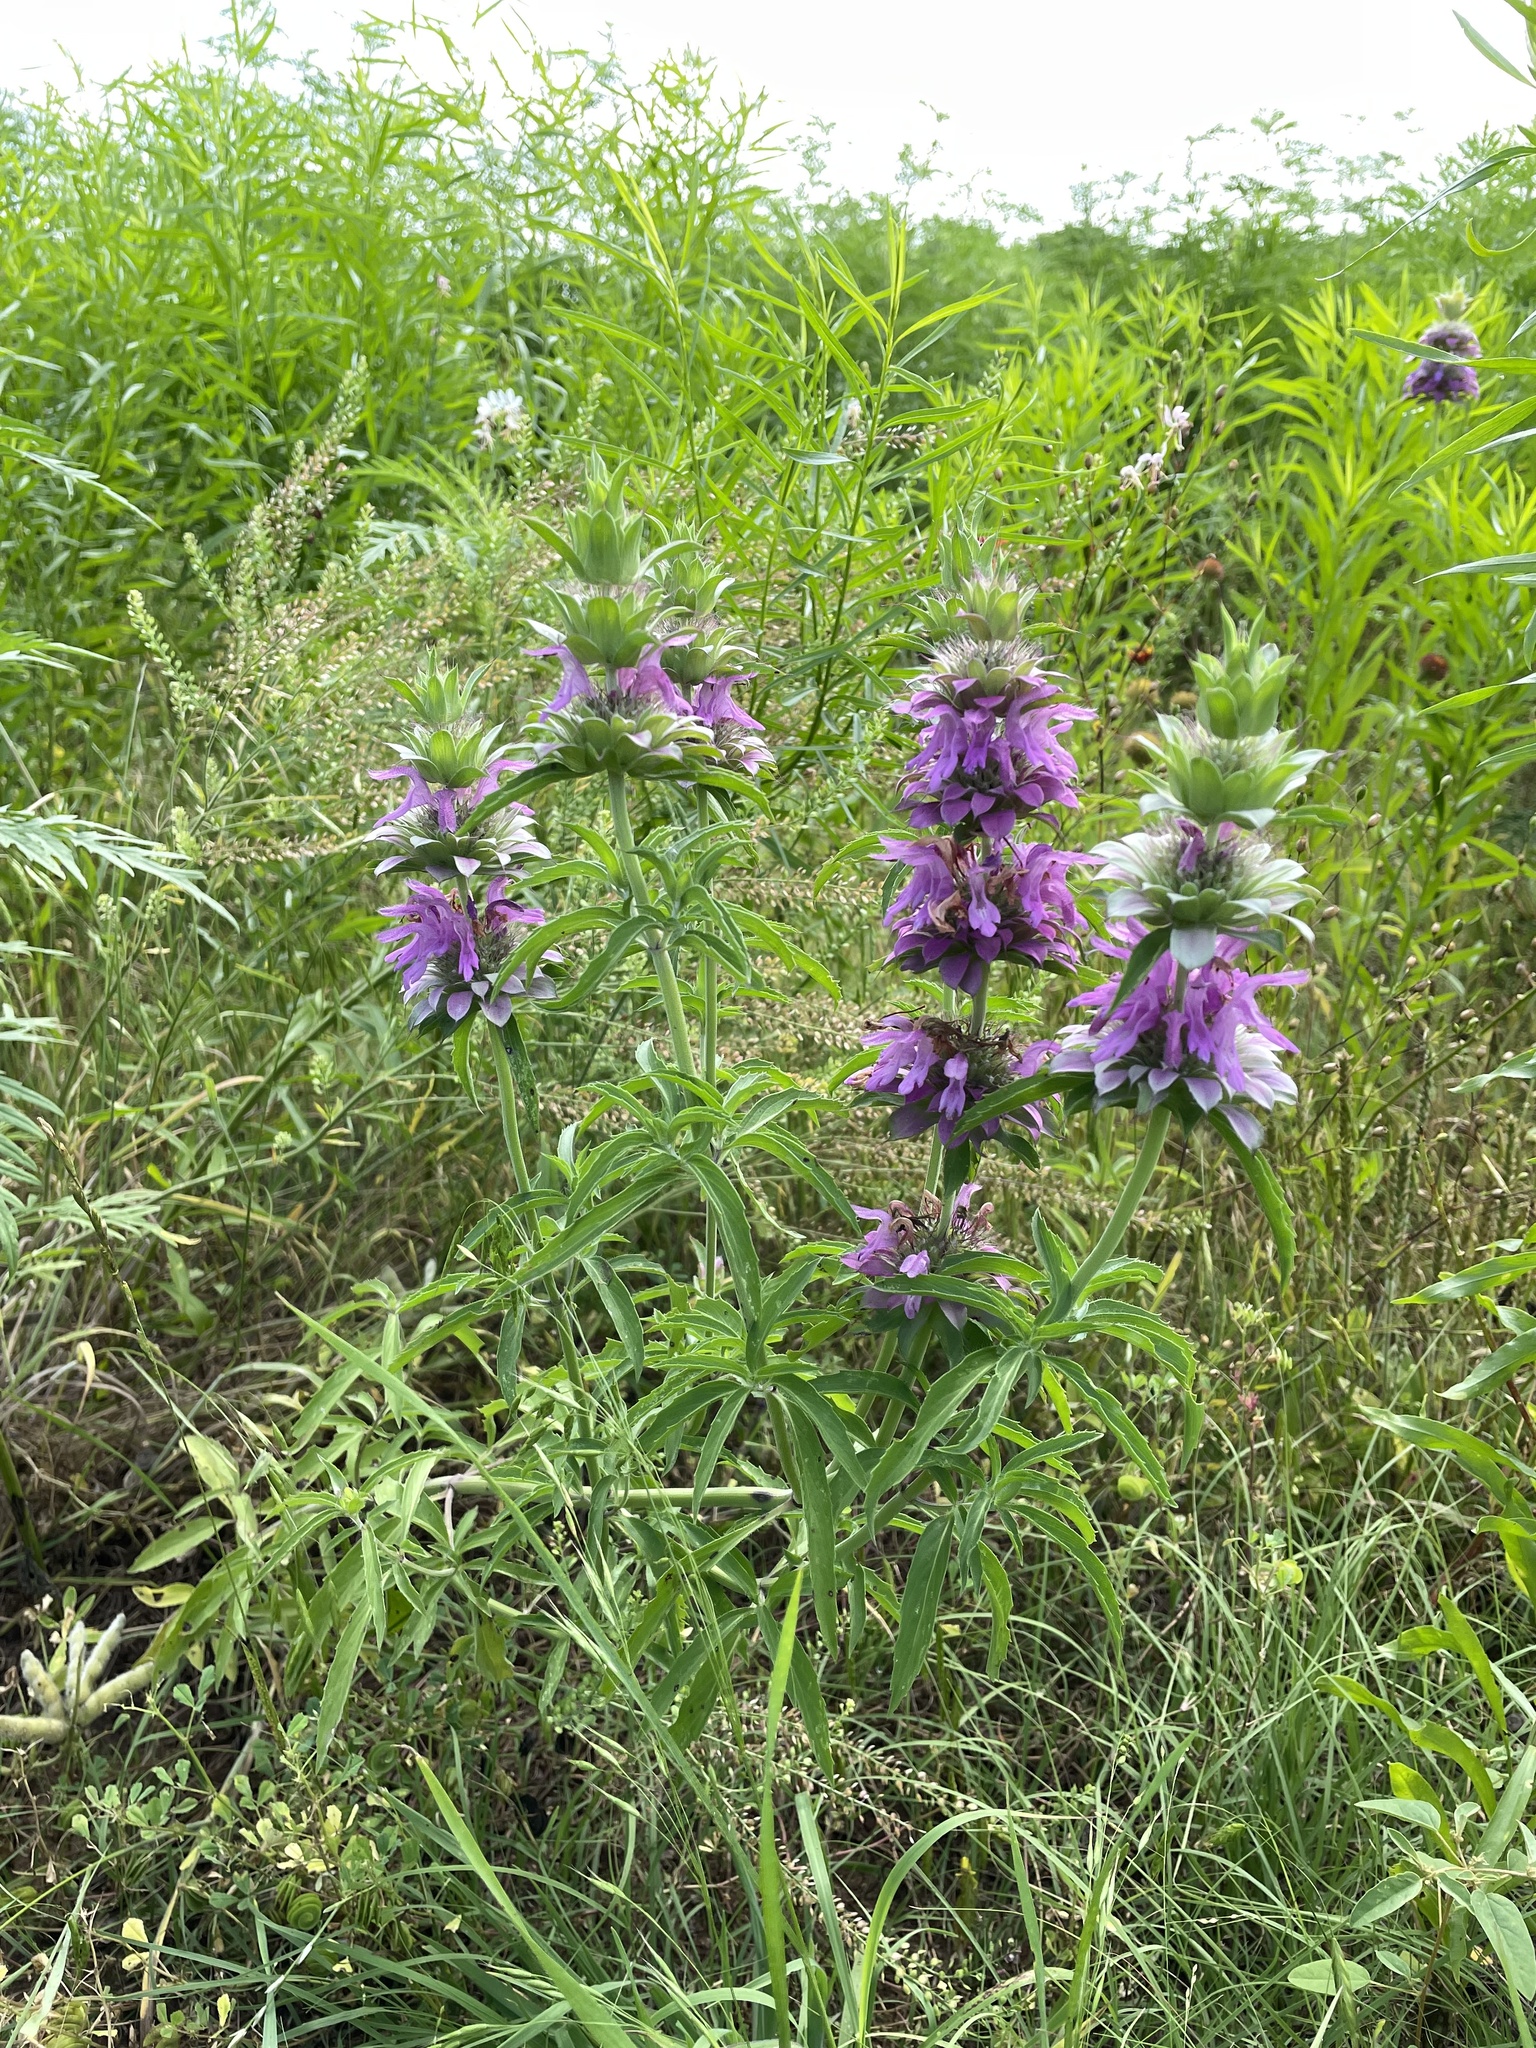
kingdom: Plantae
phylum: Tracheophyta
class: Magnoliopsida
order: Lamiales
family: Lamiaceae
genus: Monarda
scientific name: Monarda citriodora
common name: Lemon beebalm
